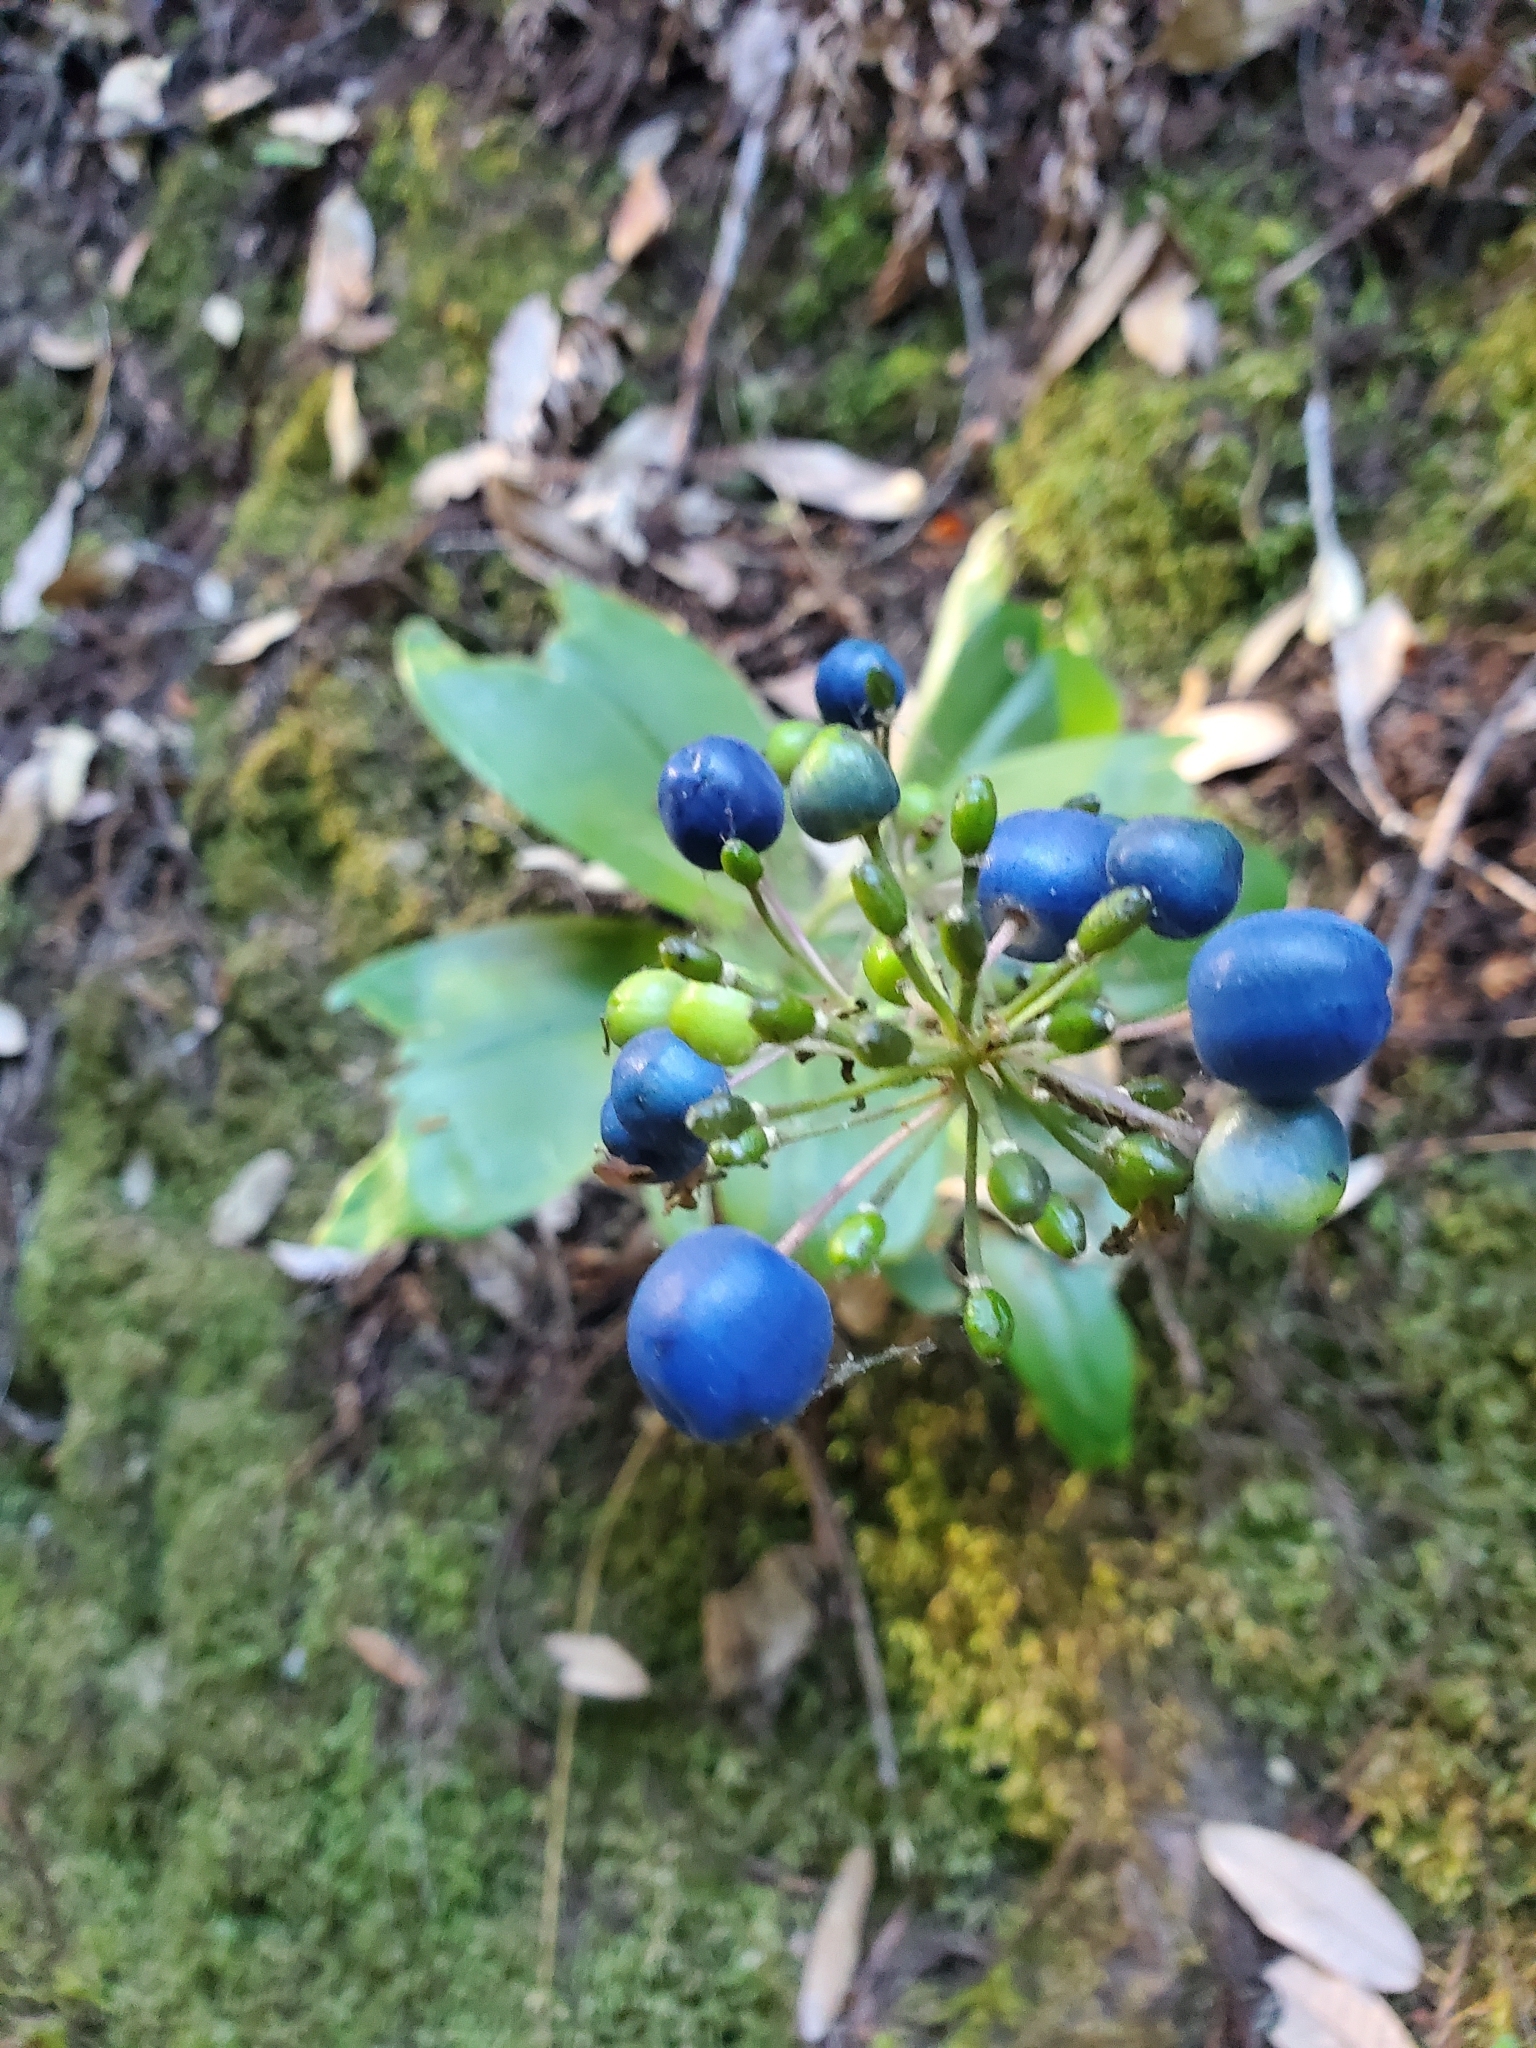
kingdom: Plantae
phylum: Tracheophyta
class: Liliopsida
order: Liliales
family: Liliaceae
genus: Clintonia
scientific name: Clintonia andrewsiana
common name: Red clintonia
